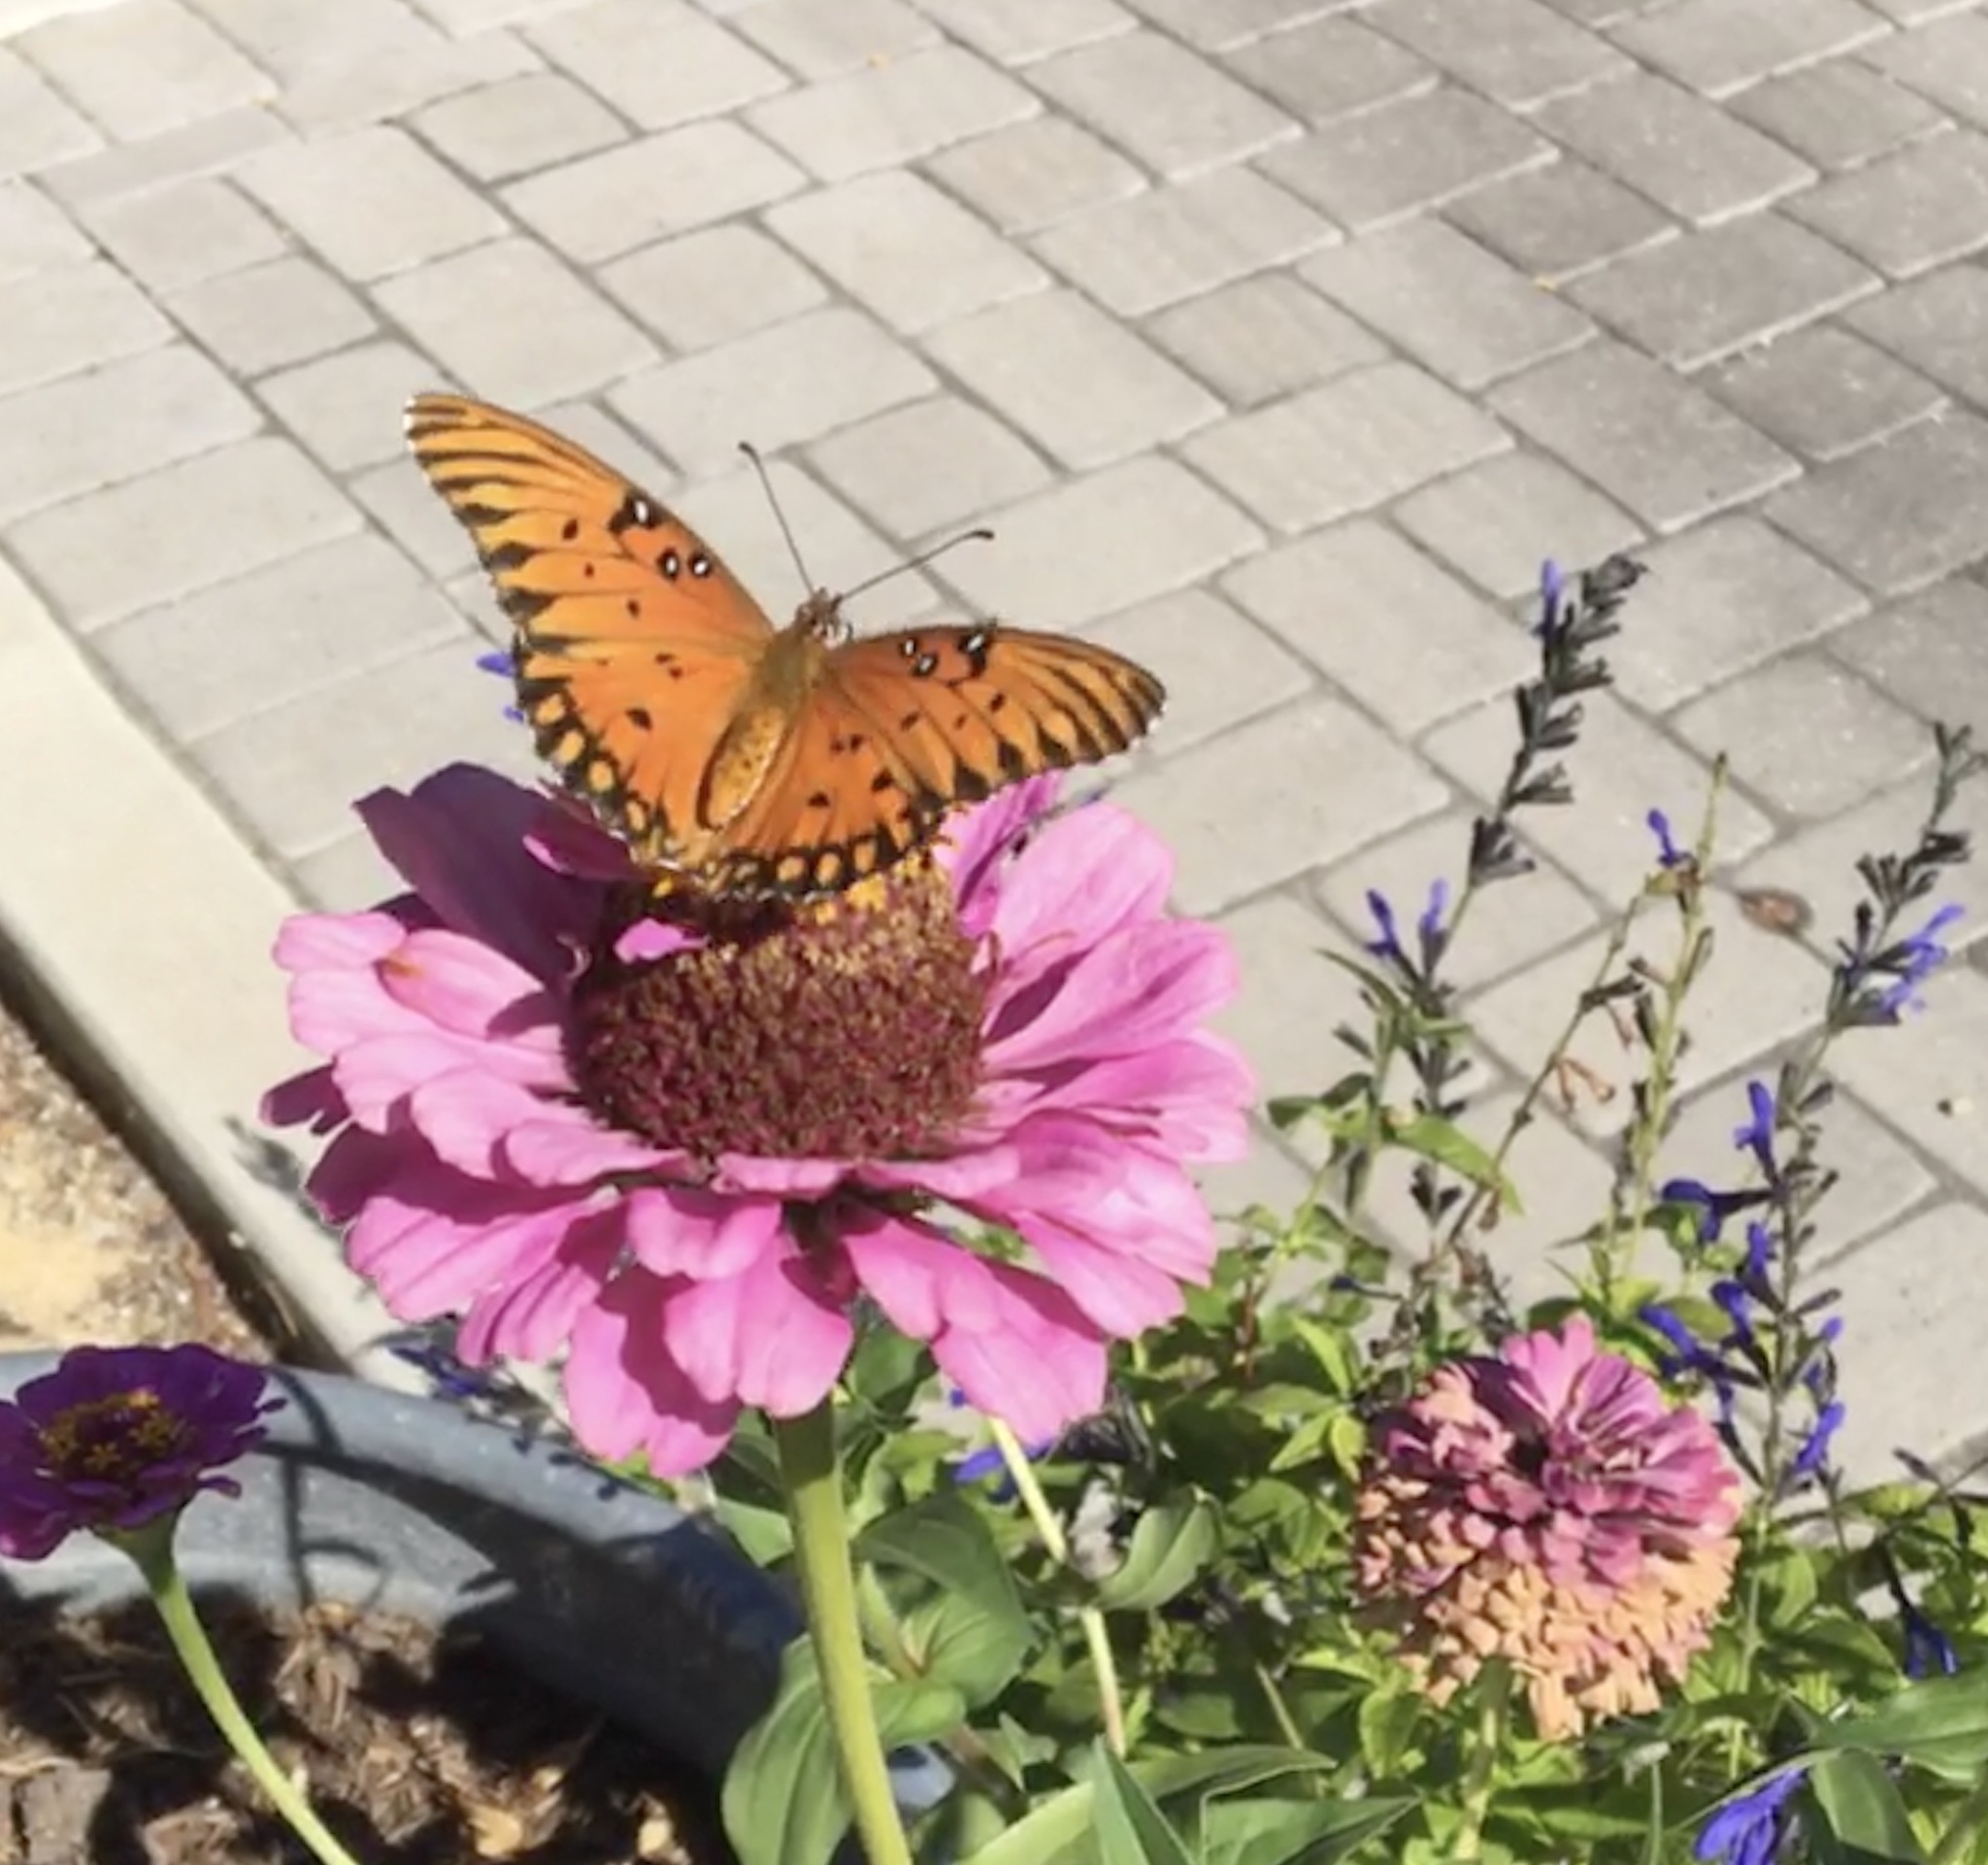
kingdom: Animalia
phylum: Arthropoda
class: Insecta
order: Lepidoptera
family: Nymphalidae
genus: Dione
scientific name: Dione vanillae
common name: Gulf fritillary
